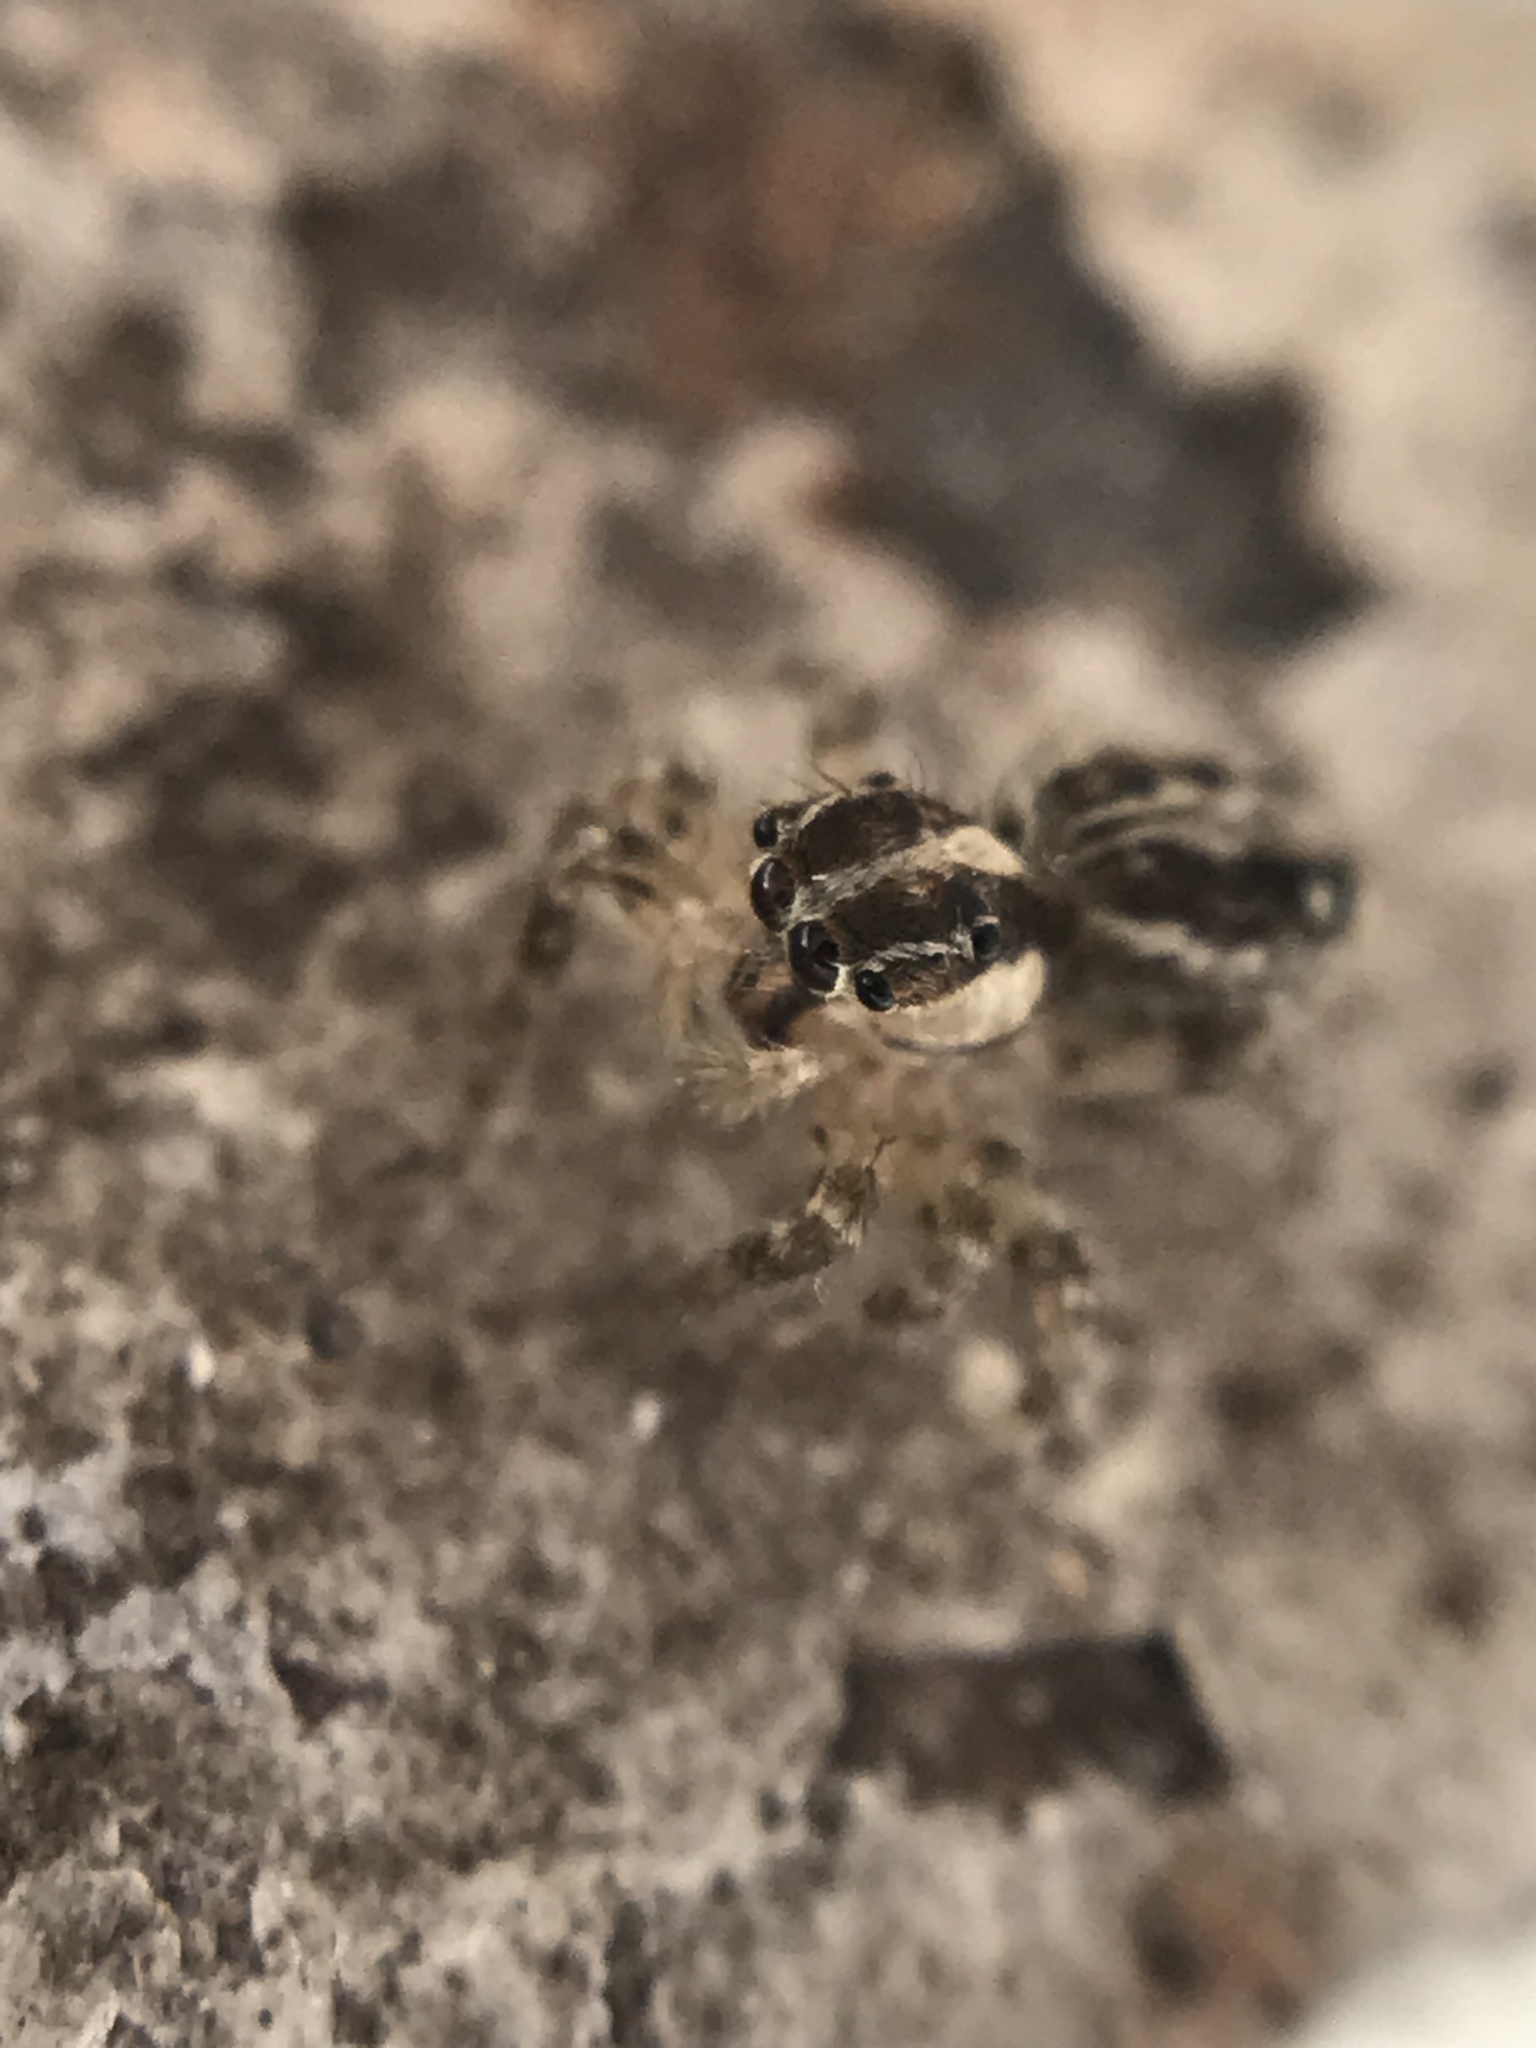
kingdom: Animalia
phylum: Arthropoda
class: Arachnida
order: Araneae
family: Salticidae
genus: Plexippus
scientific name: Plexippus paykulli
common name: Pantropical jumper
